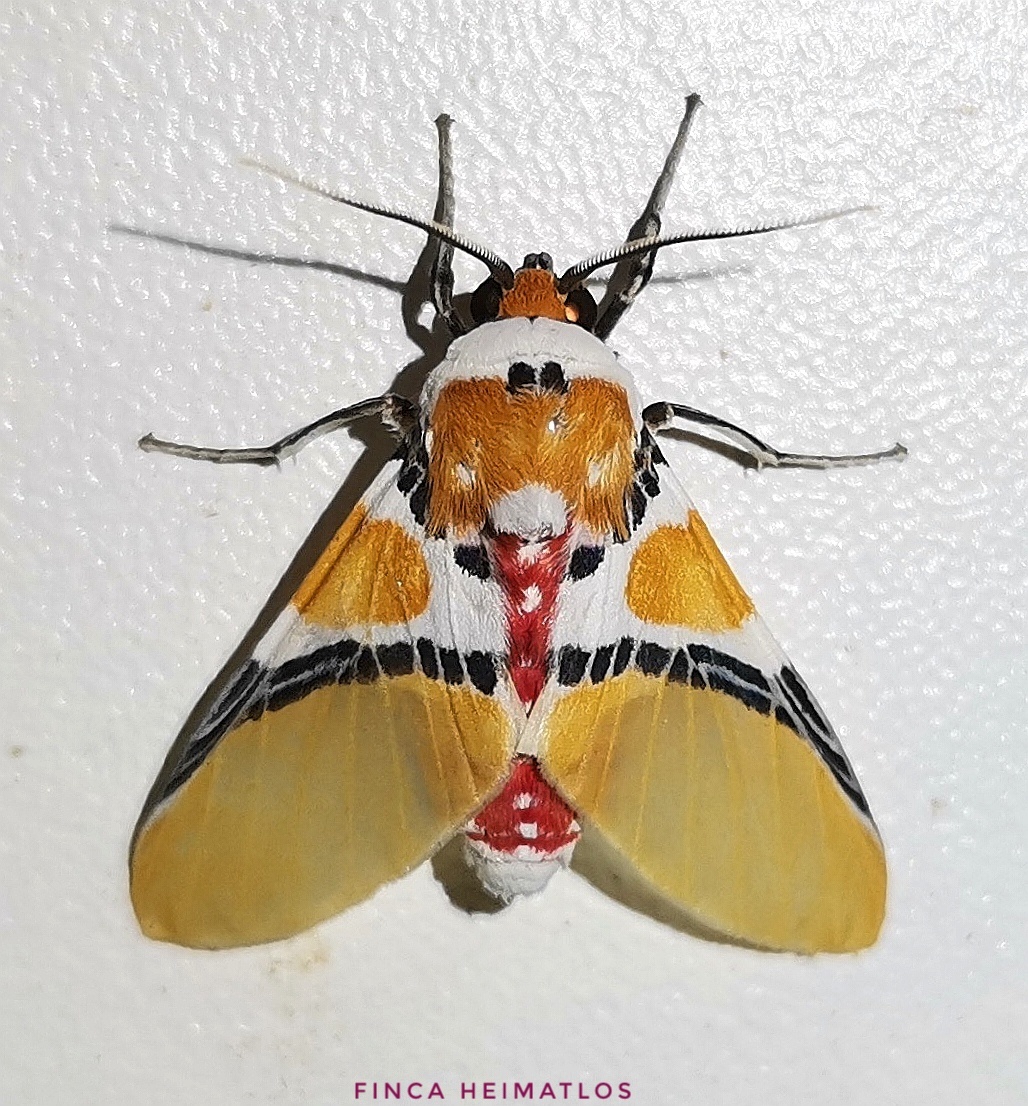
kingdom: Animalia
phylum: Arthropoda
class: Insecta
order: Lepidoptera
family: Erebidae
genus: Idalus
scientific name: Idalus critheis
